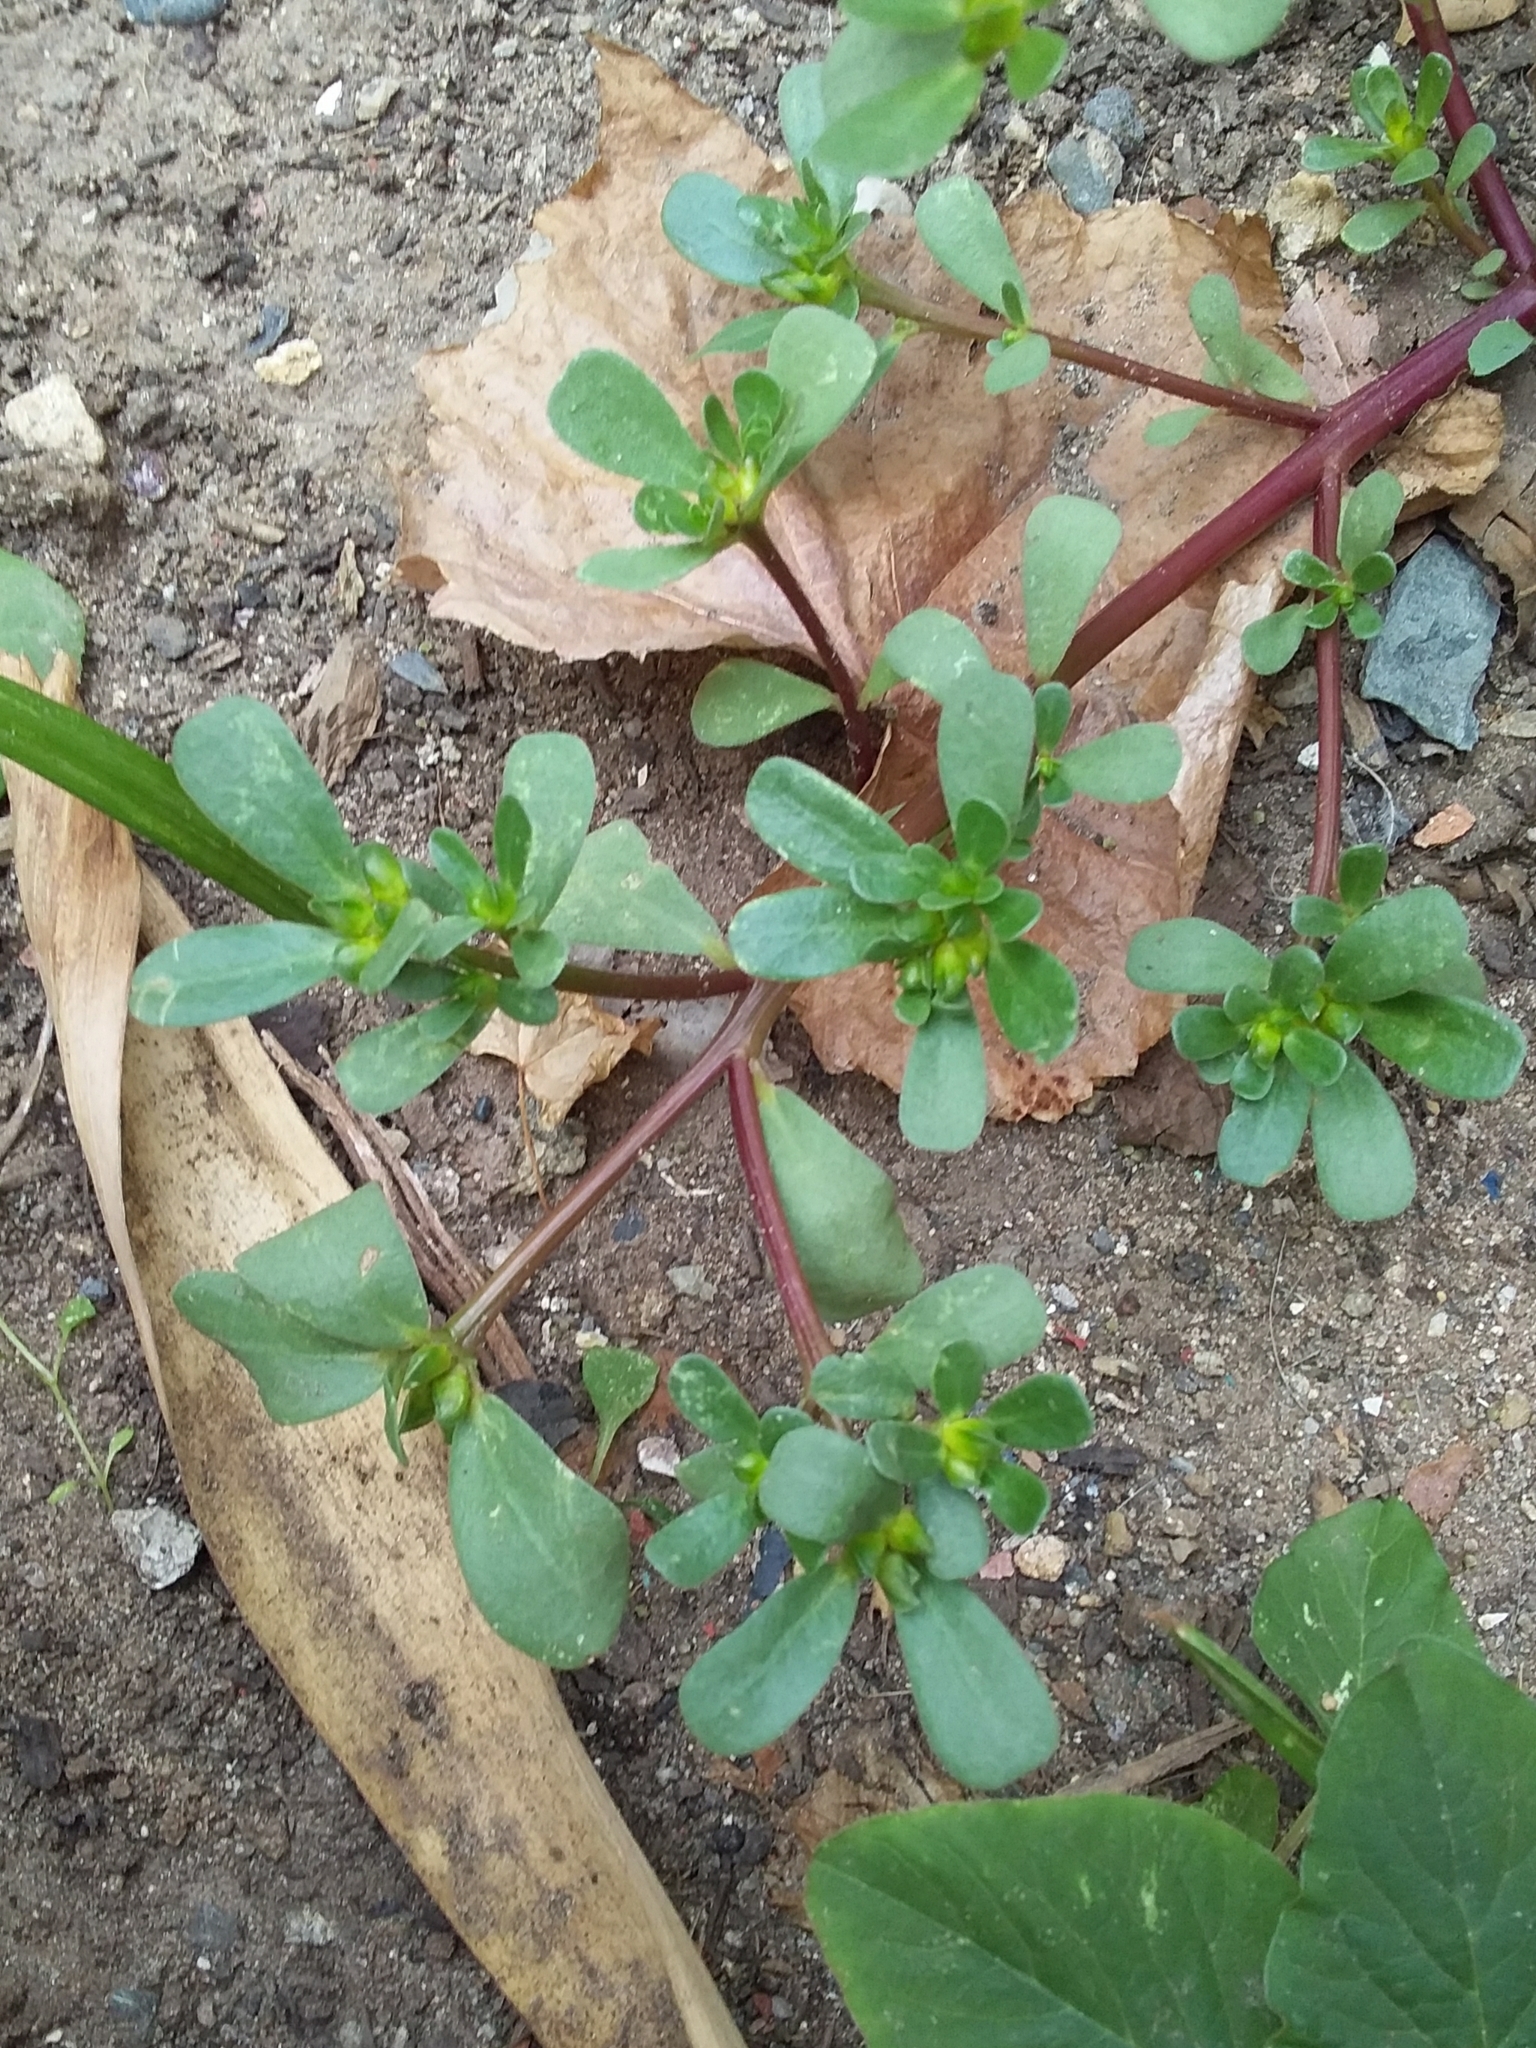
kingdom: Plantae
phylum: Tracheophyta
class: Magnoliopsida
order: Caryophyllales
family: Portulacaceae
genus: Portulaca
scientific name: Portulaca oleracea
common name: Common purslane
